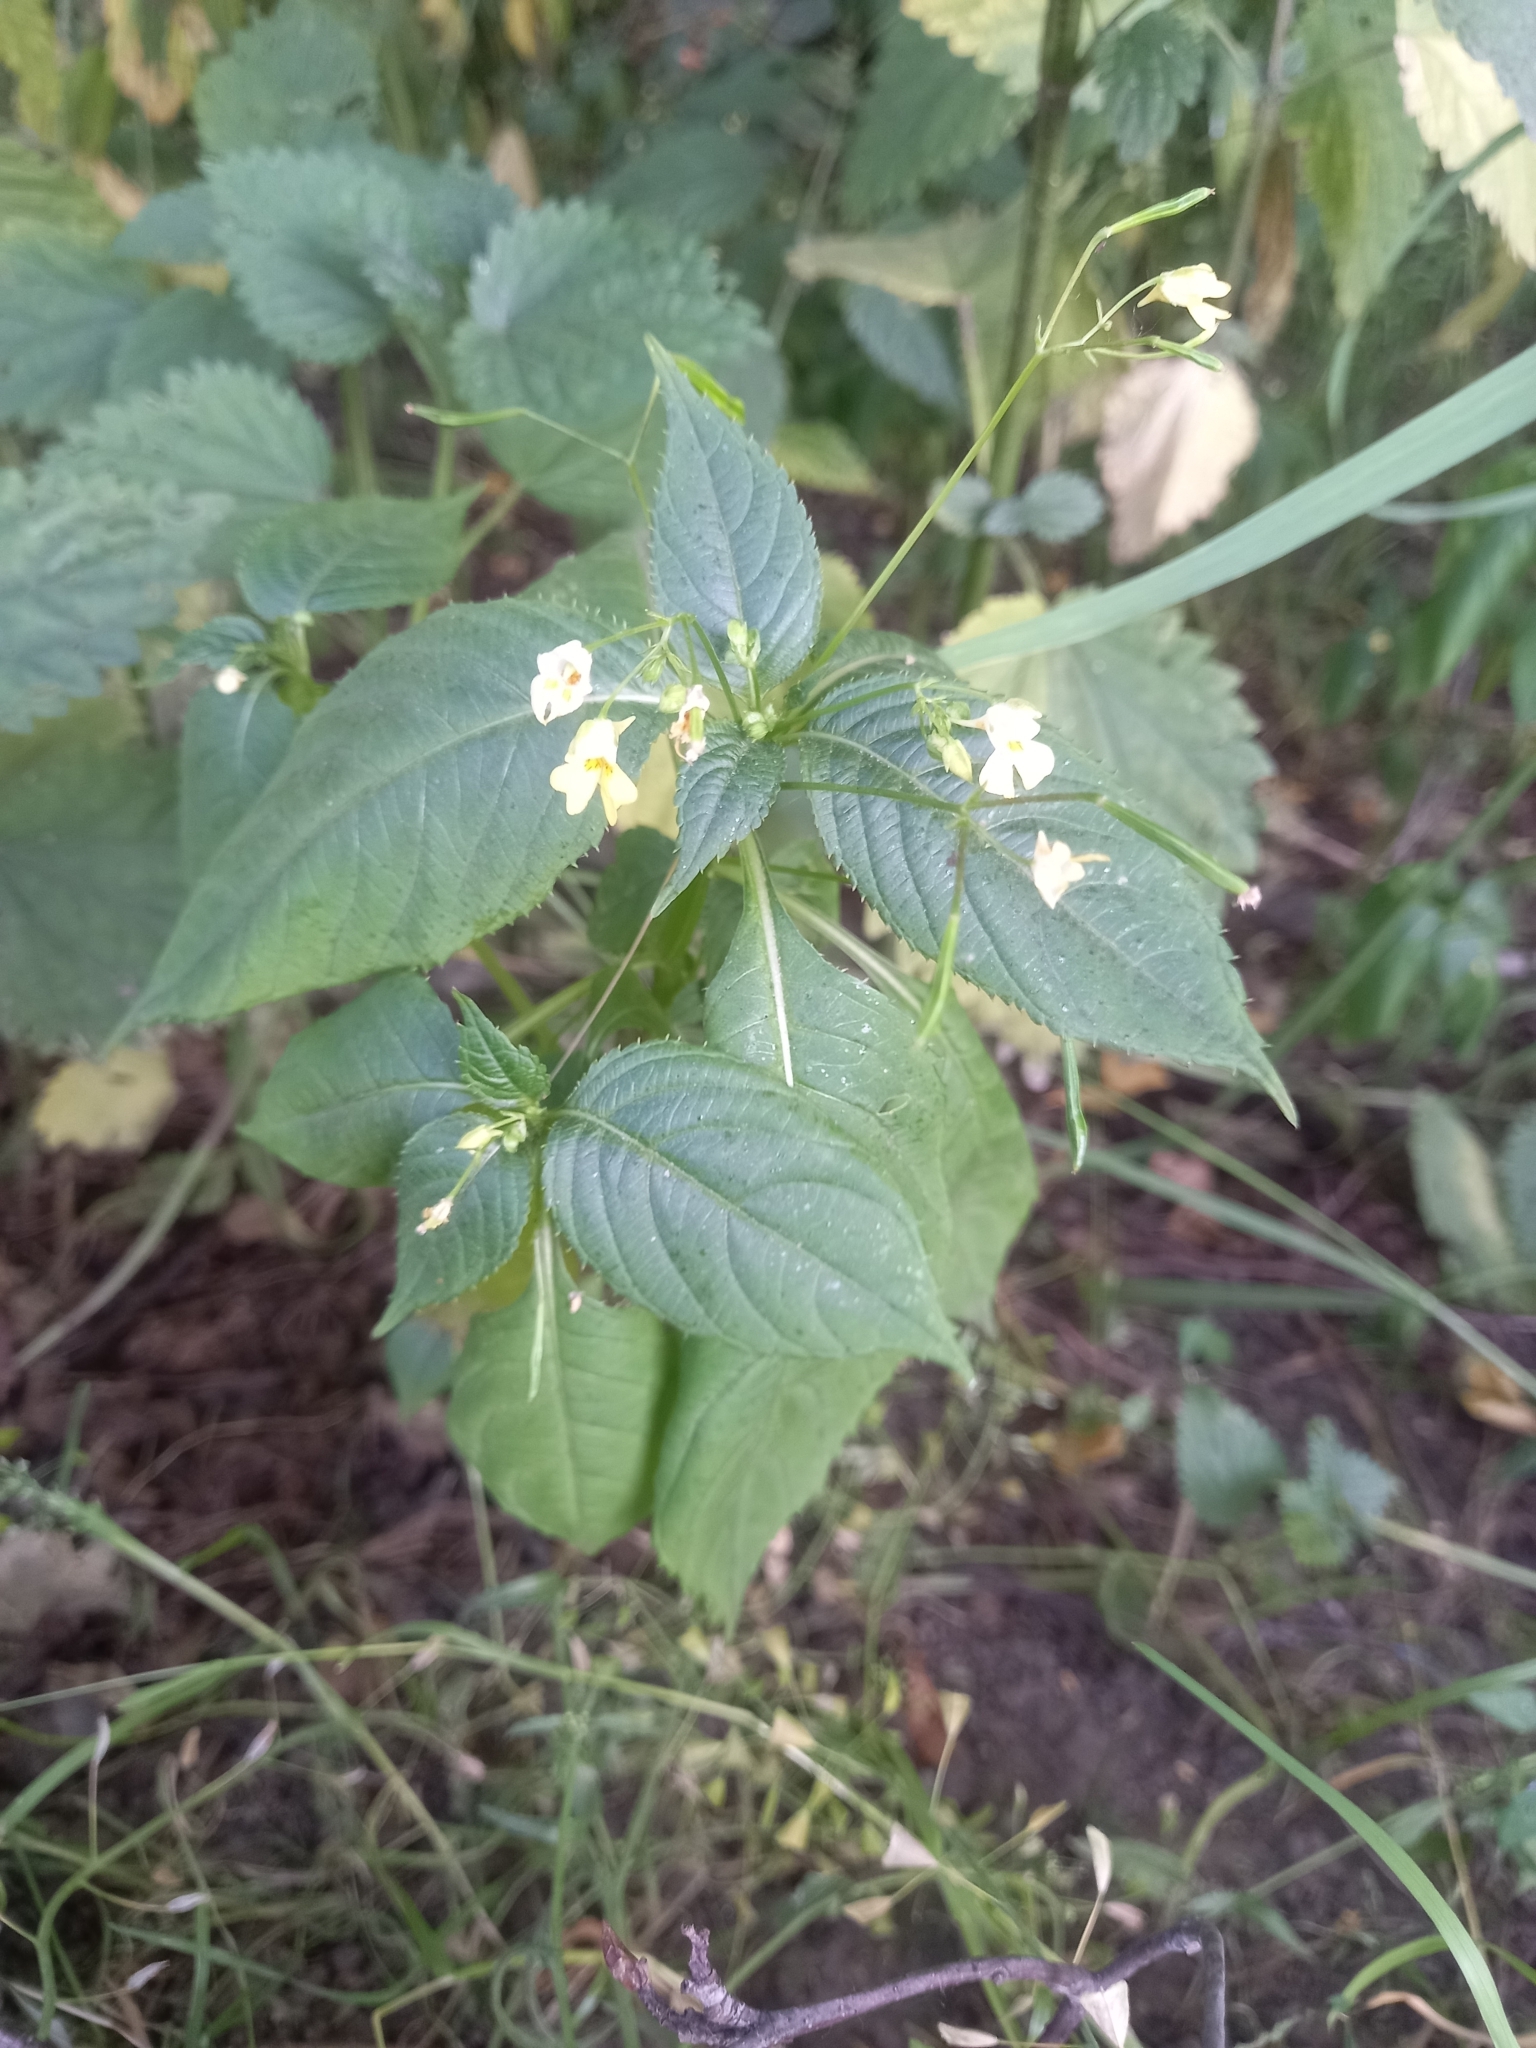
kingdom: Plantae
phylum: Tracheophyta
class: Magnoliopsida
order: Ericales
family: Balsaminaceae
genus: Impatiens
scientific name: Impatiens parviflora
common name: Small balsam
